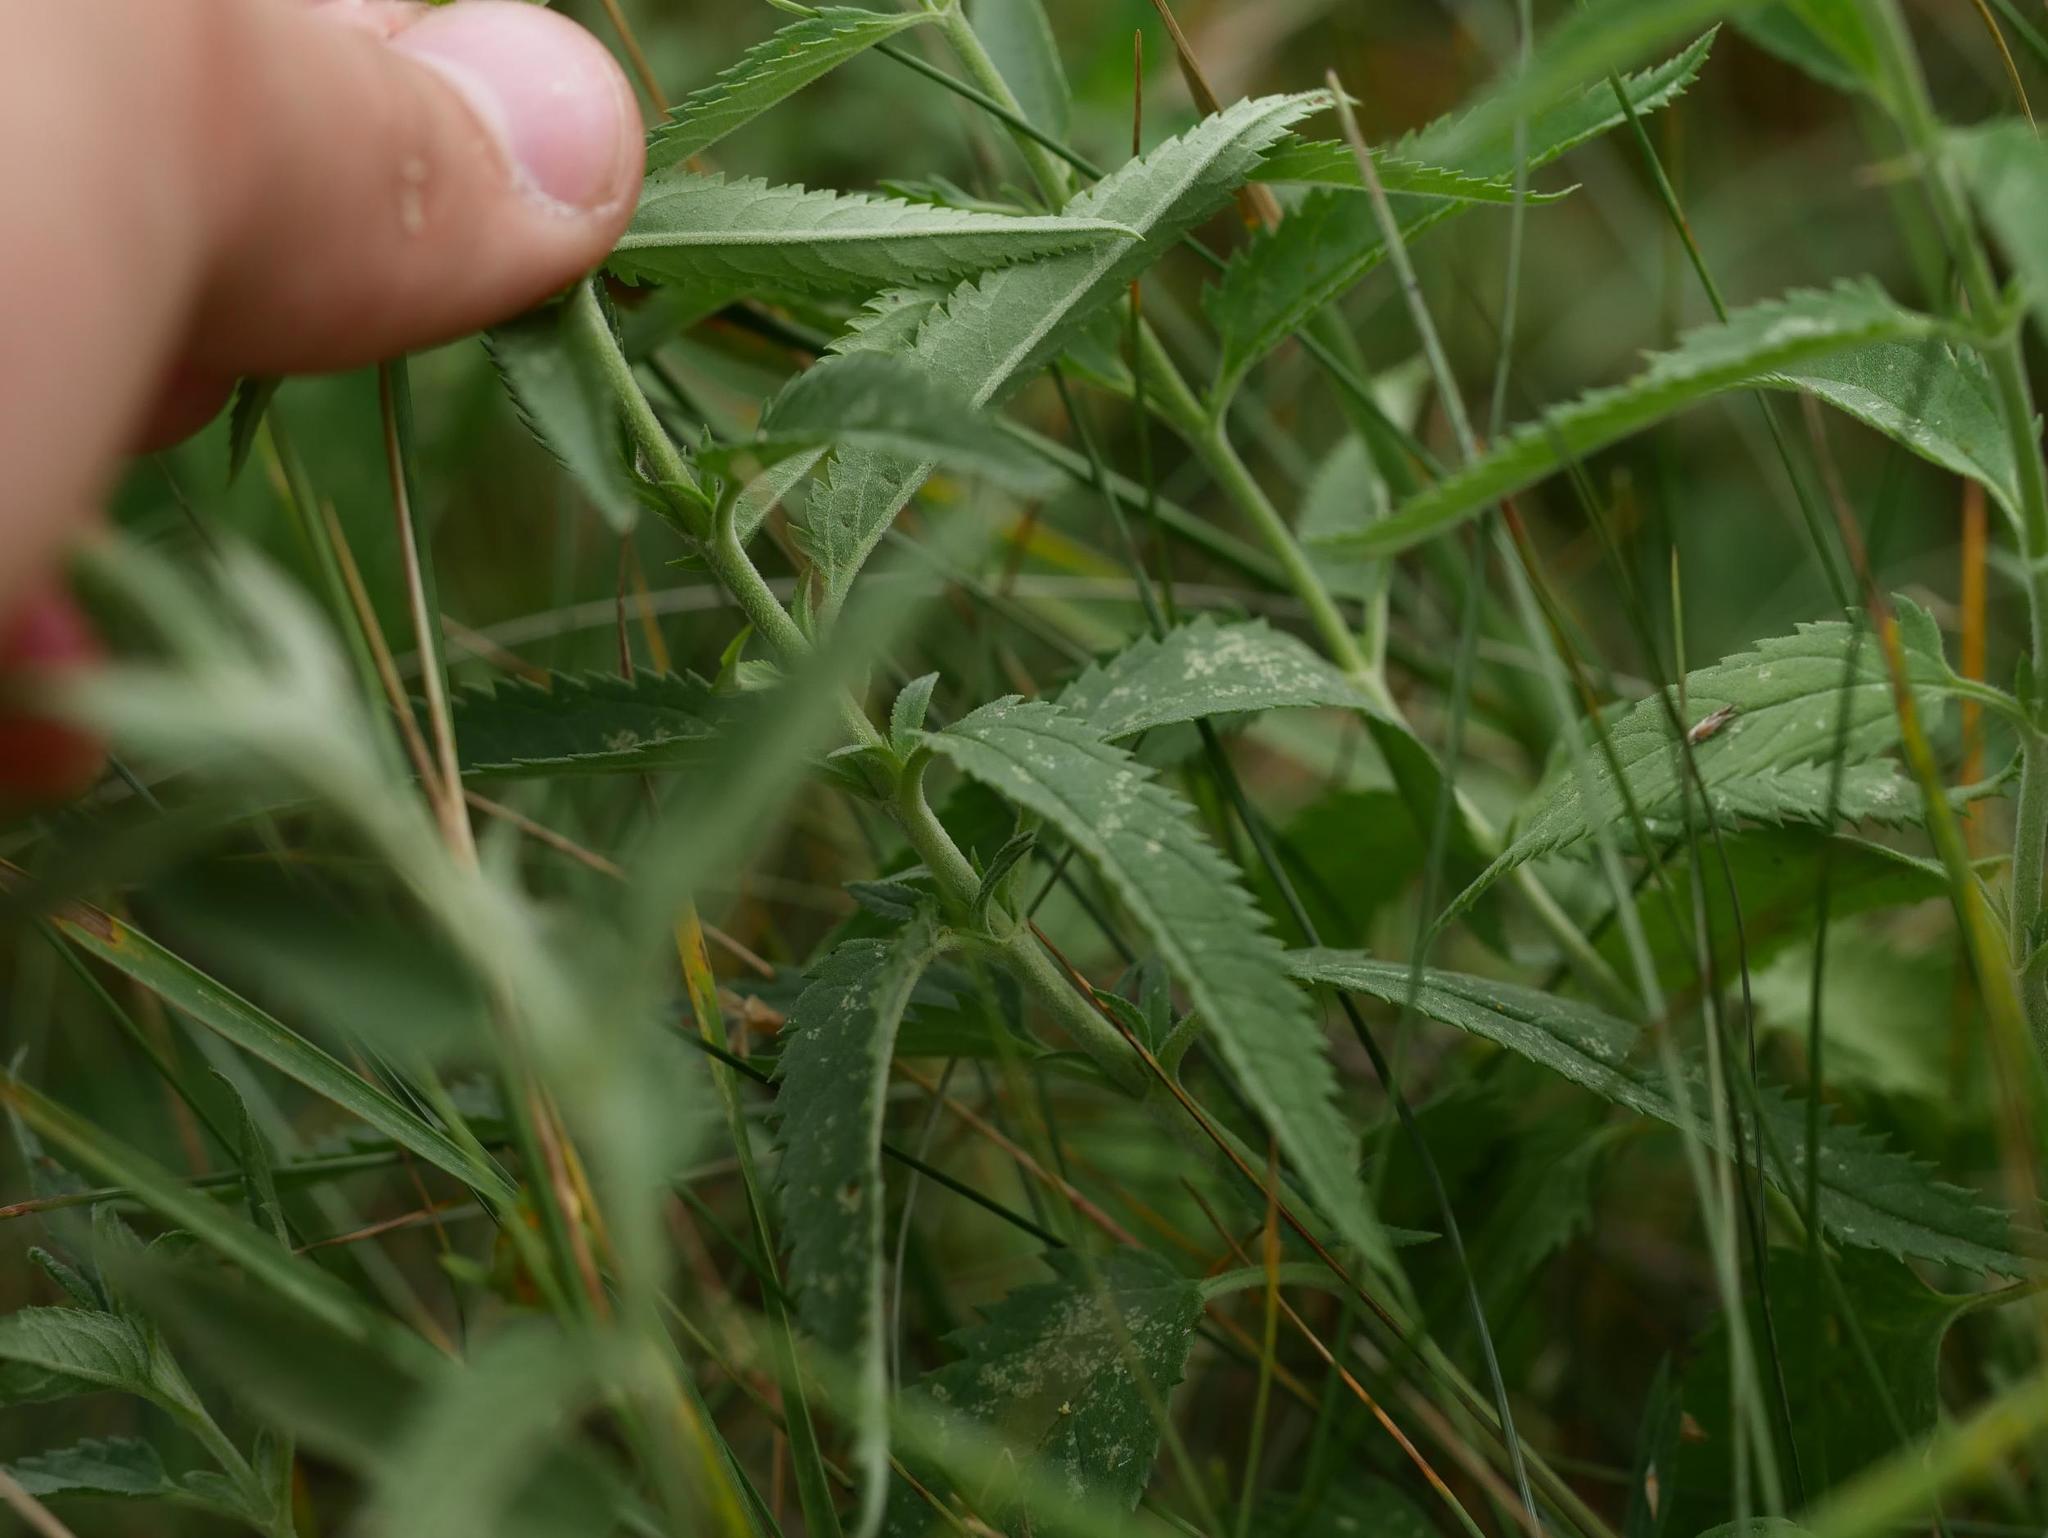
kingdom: Plantae
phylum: Tracheophyta
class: Magnoliopsida
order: Lamiales
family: Plantaginaceae
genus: Veronica
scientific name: Veronica longifolia
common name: Garden speedwell
